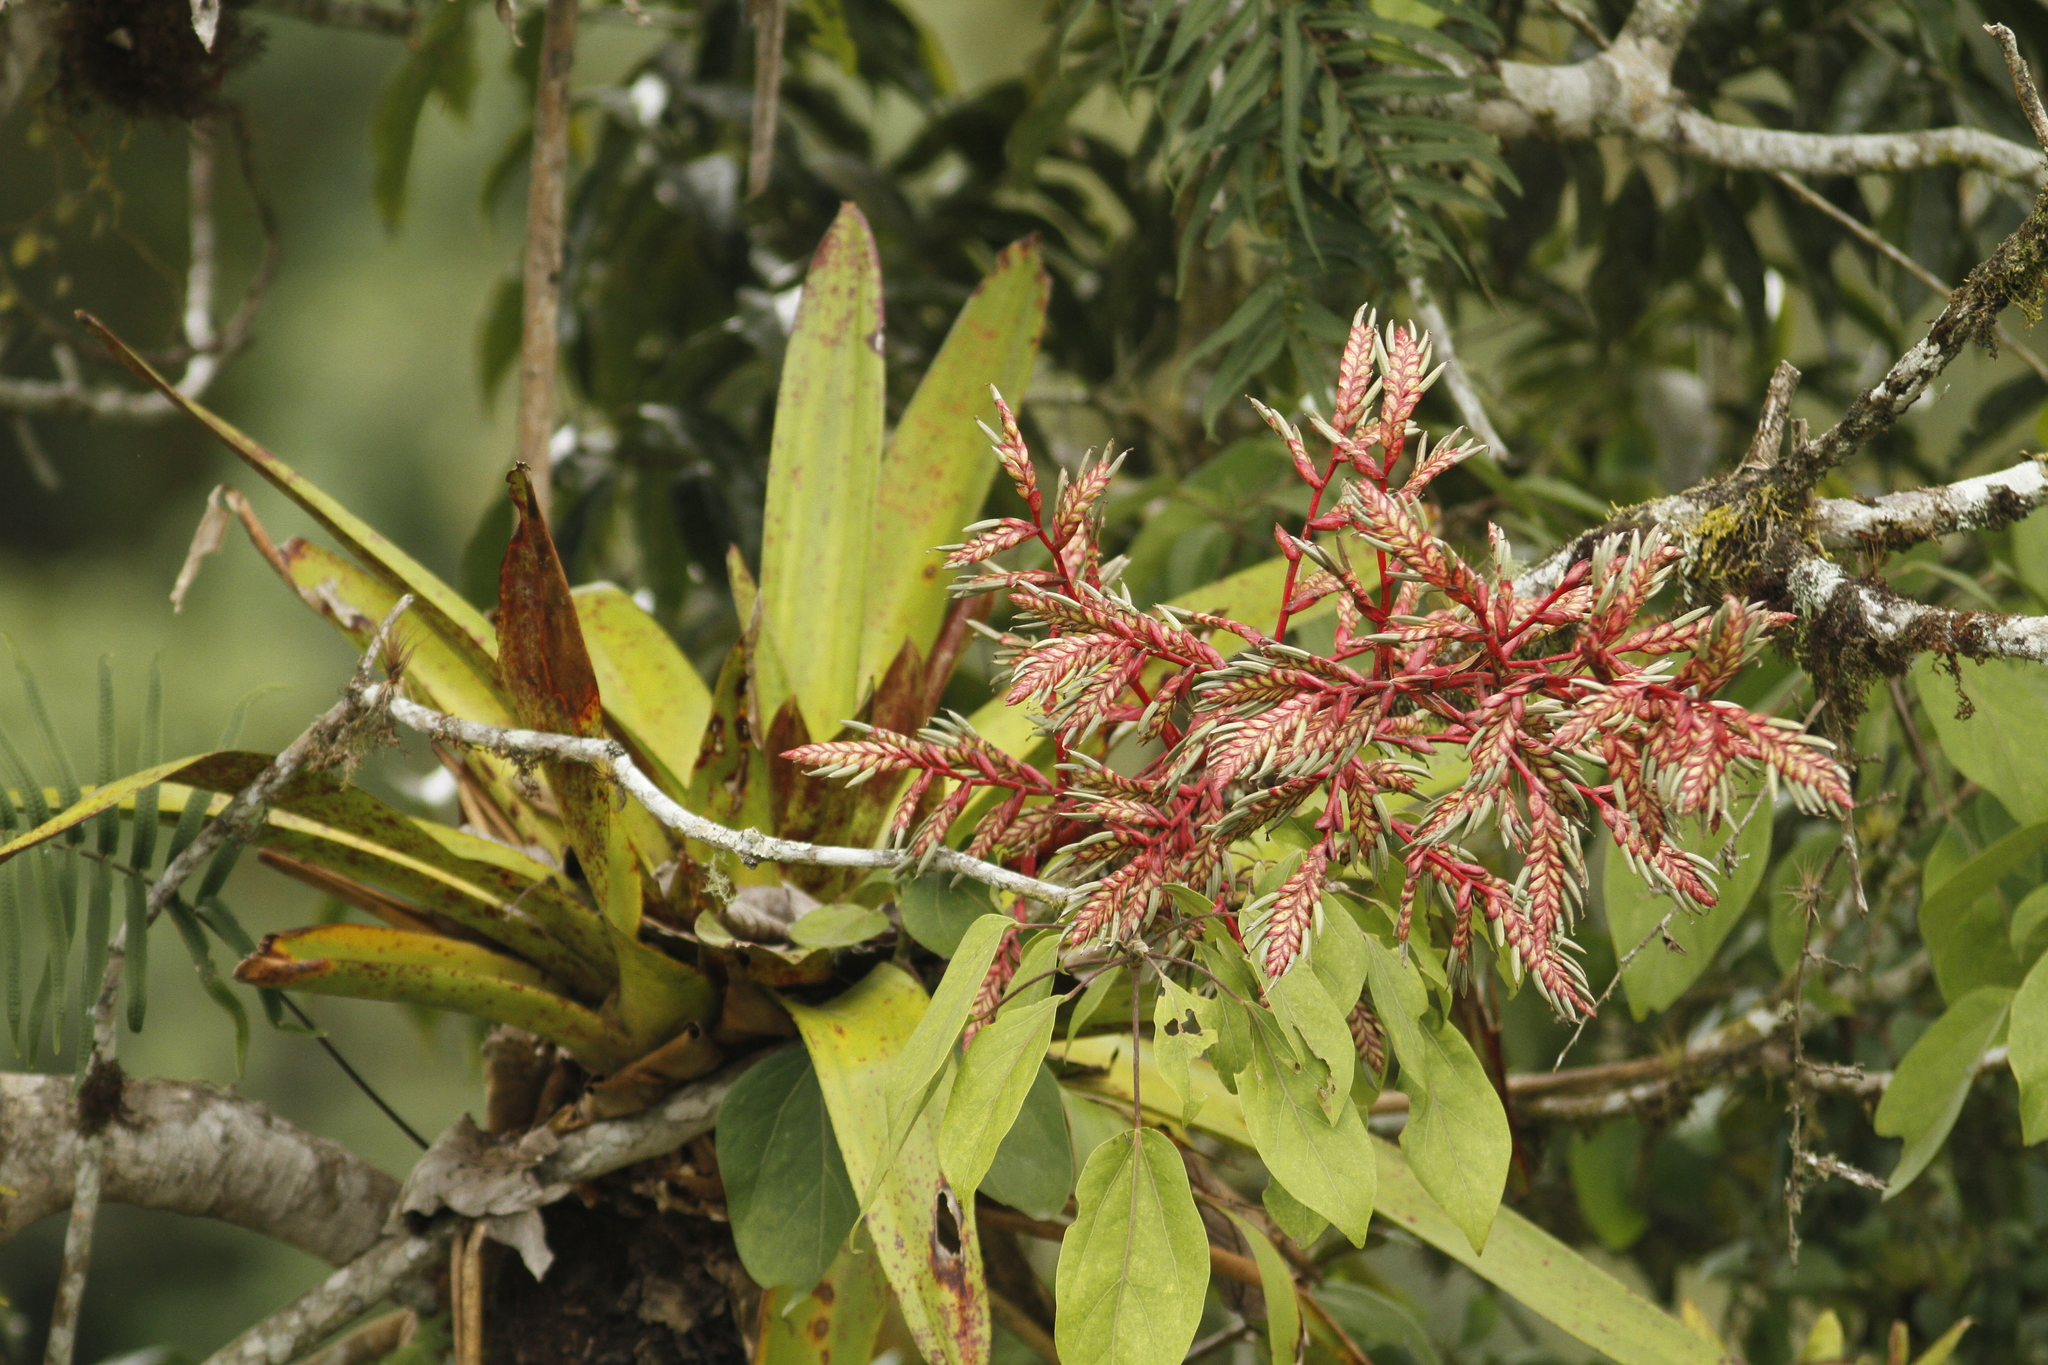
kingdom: Plantae
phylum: Tracheophyta
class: Liliopsida
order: Poales
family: Bromeliaceae
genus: Tillandsia
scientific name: Tillandsia maculata
